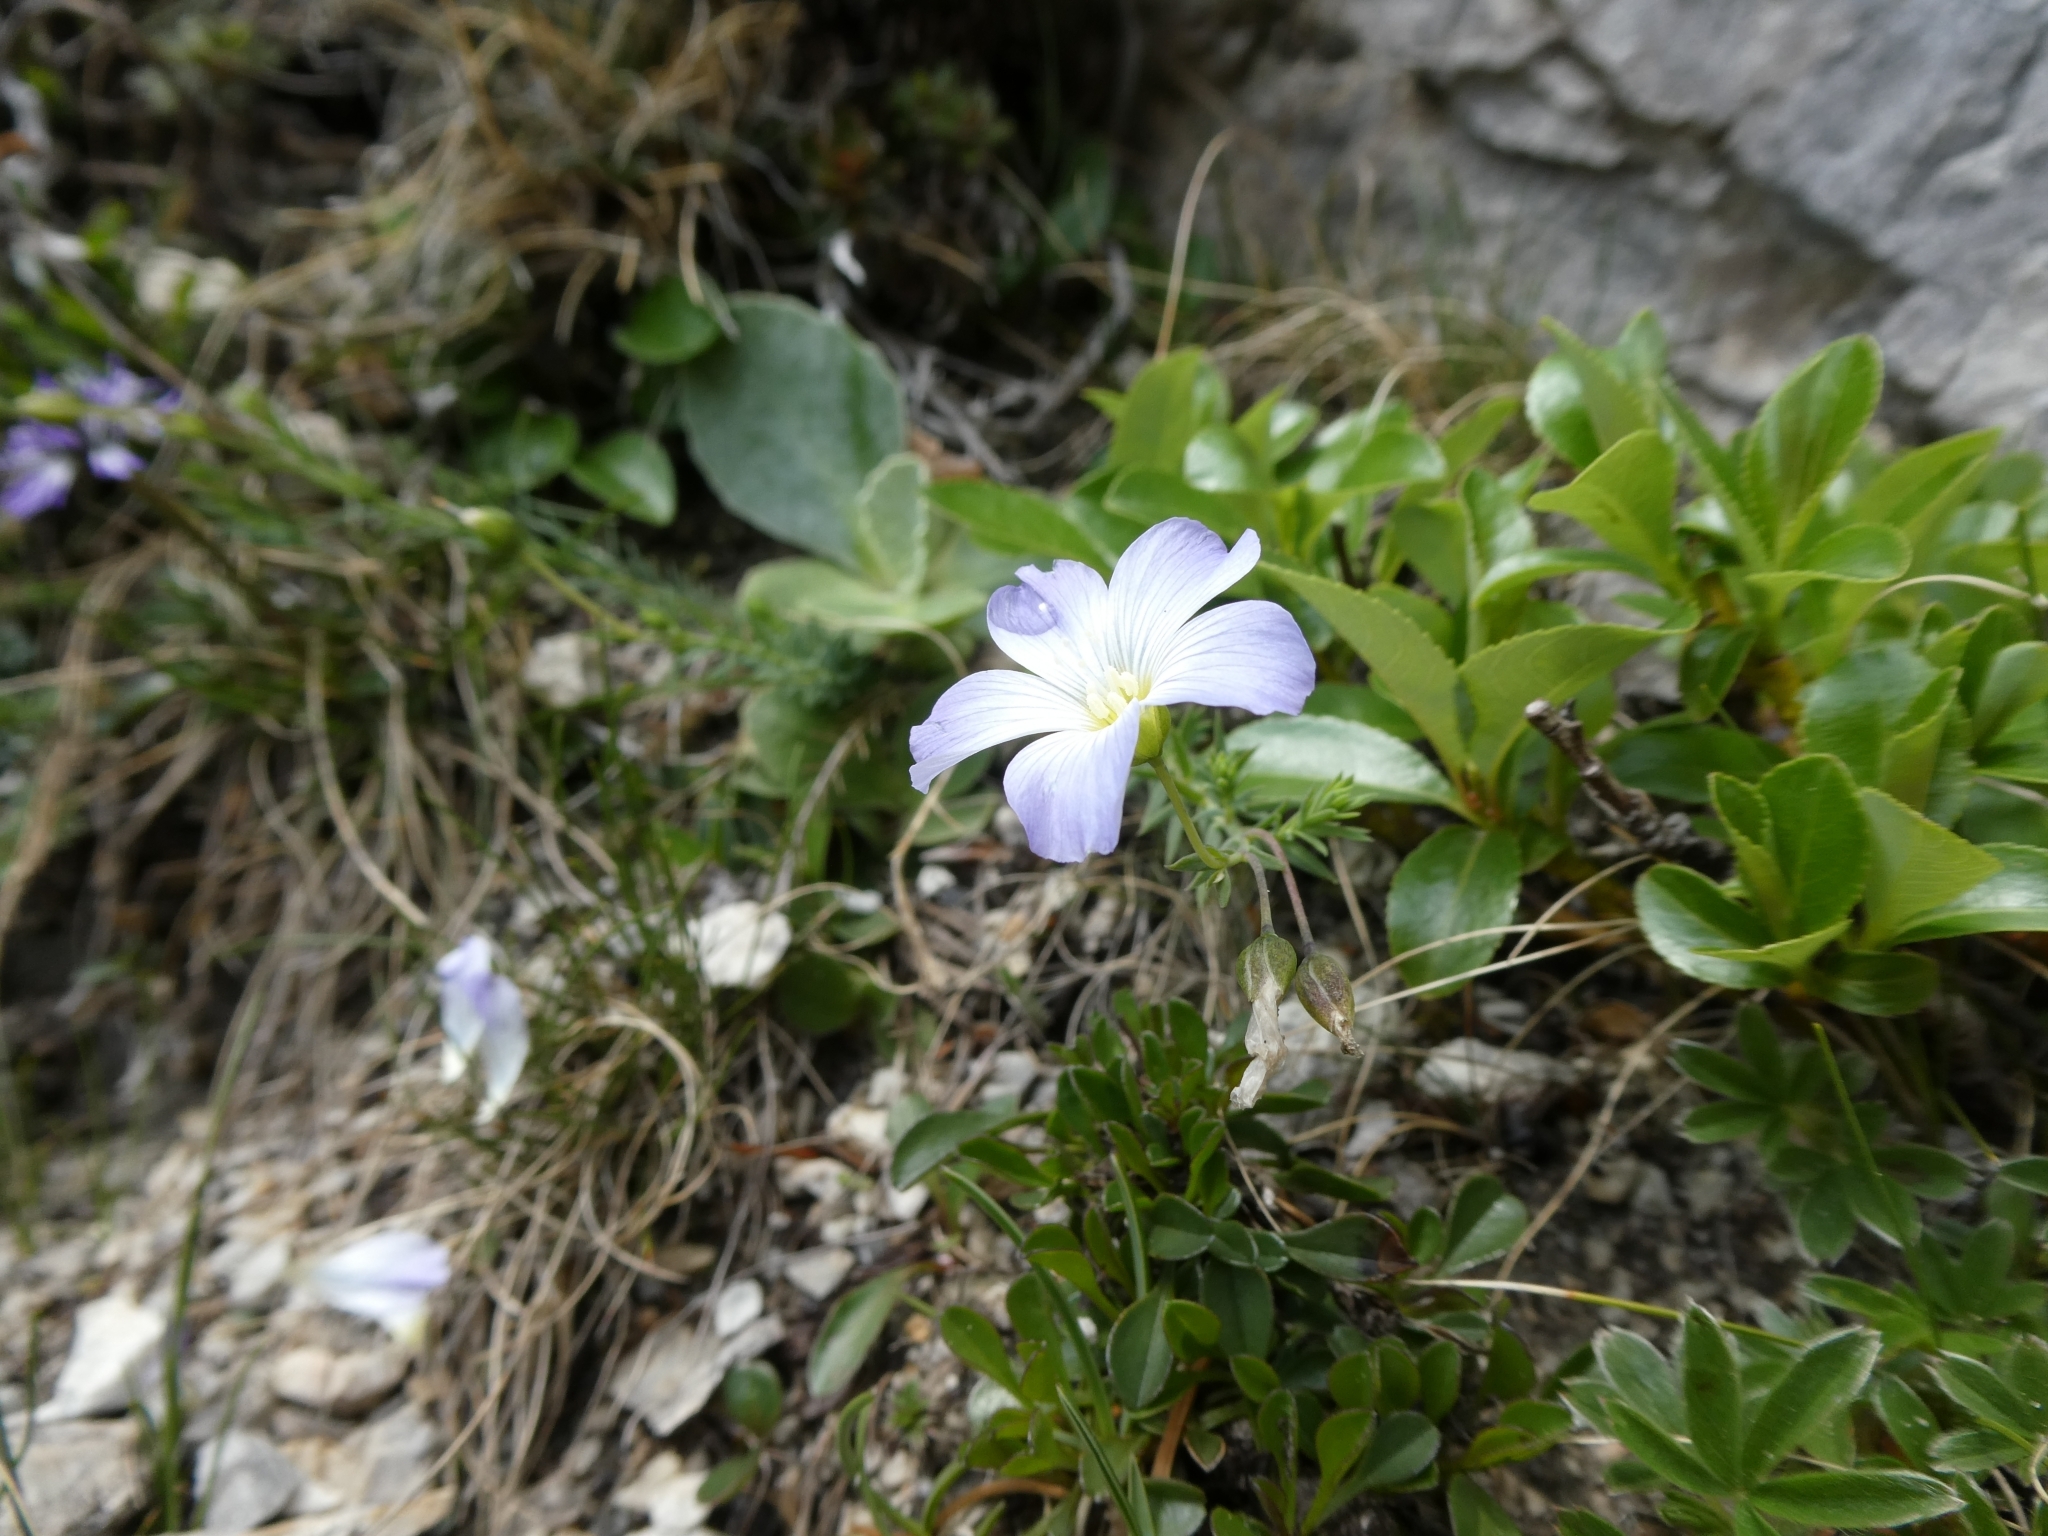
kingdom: Plantae
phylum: Tracheophyta
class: Magnoliopsida
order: Malpighiales
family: Linaceae
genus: Linum
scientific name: Linum alpinum
